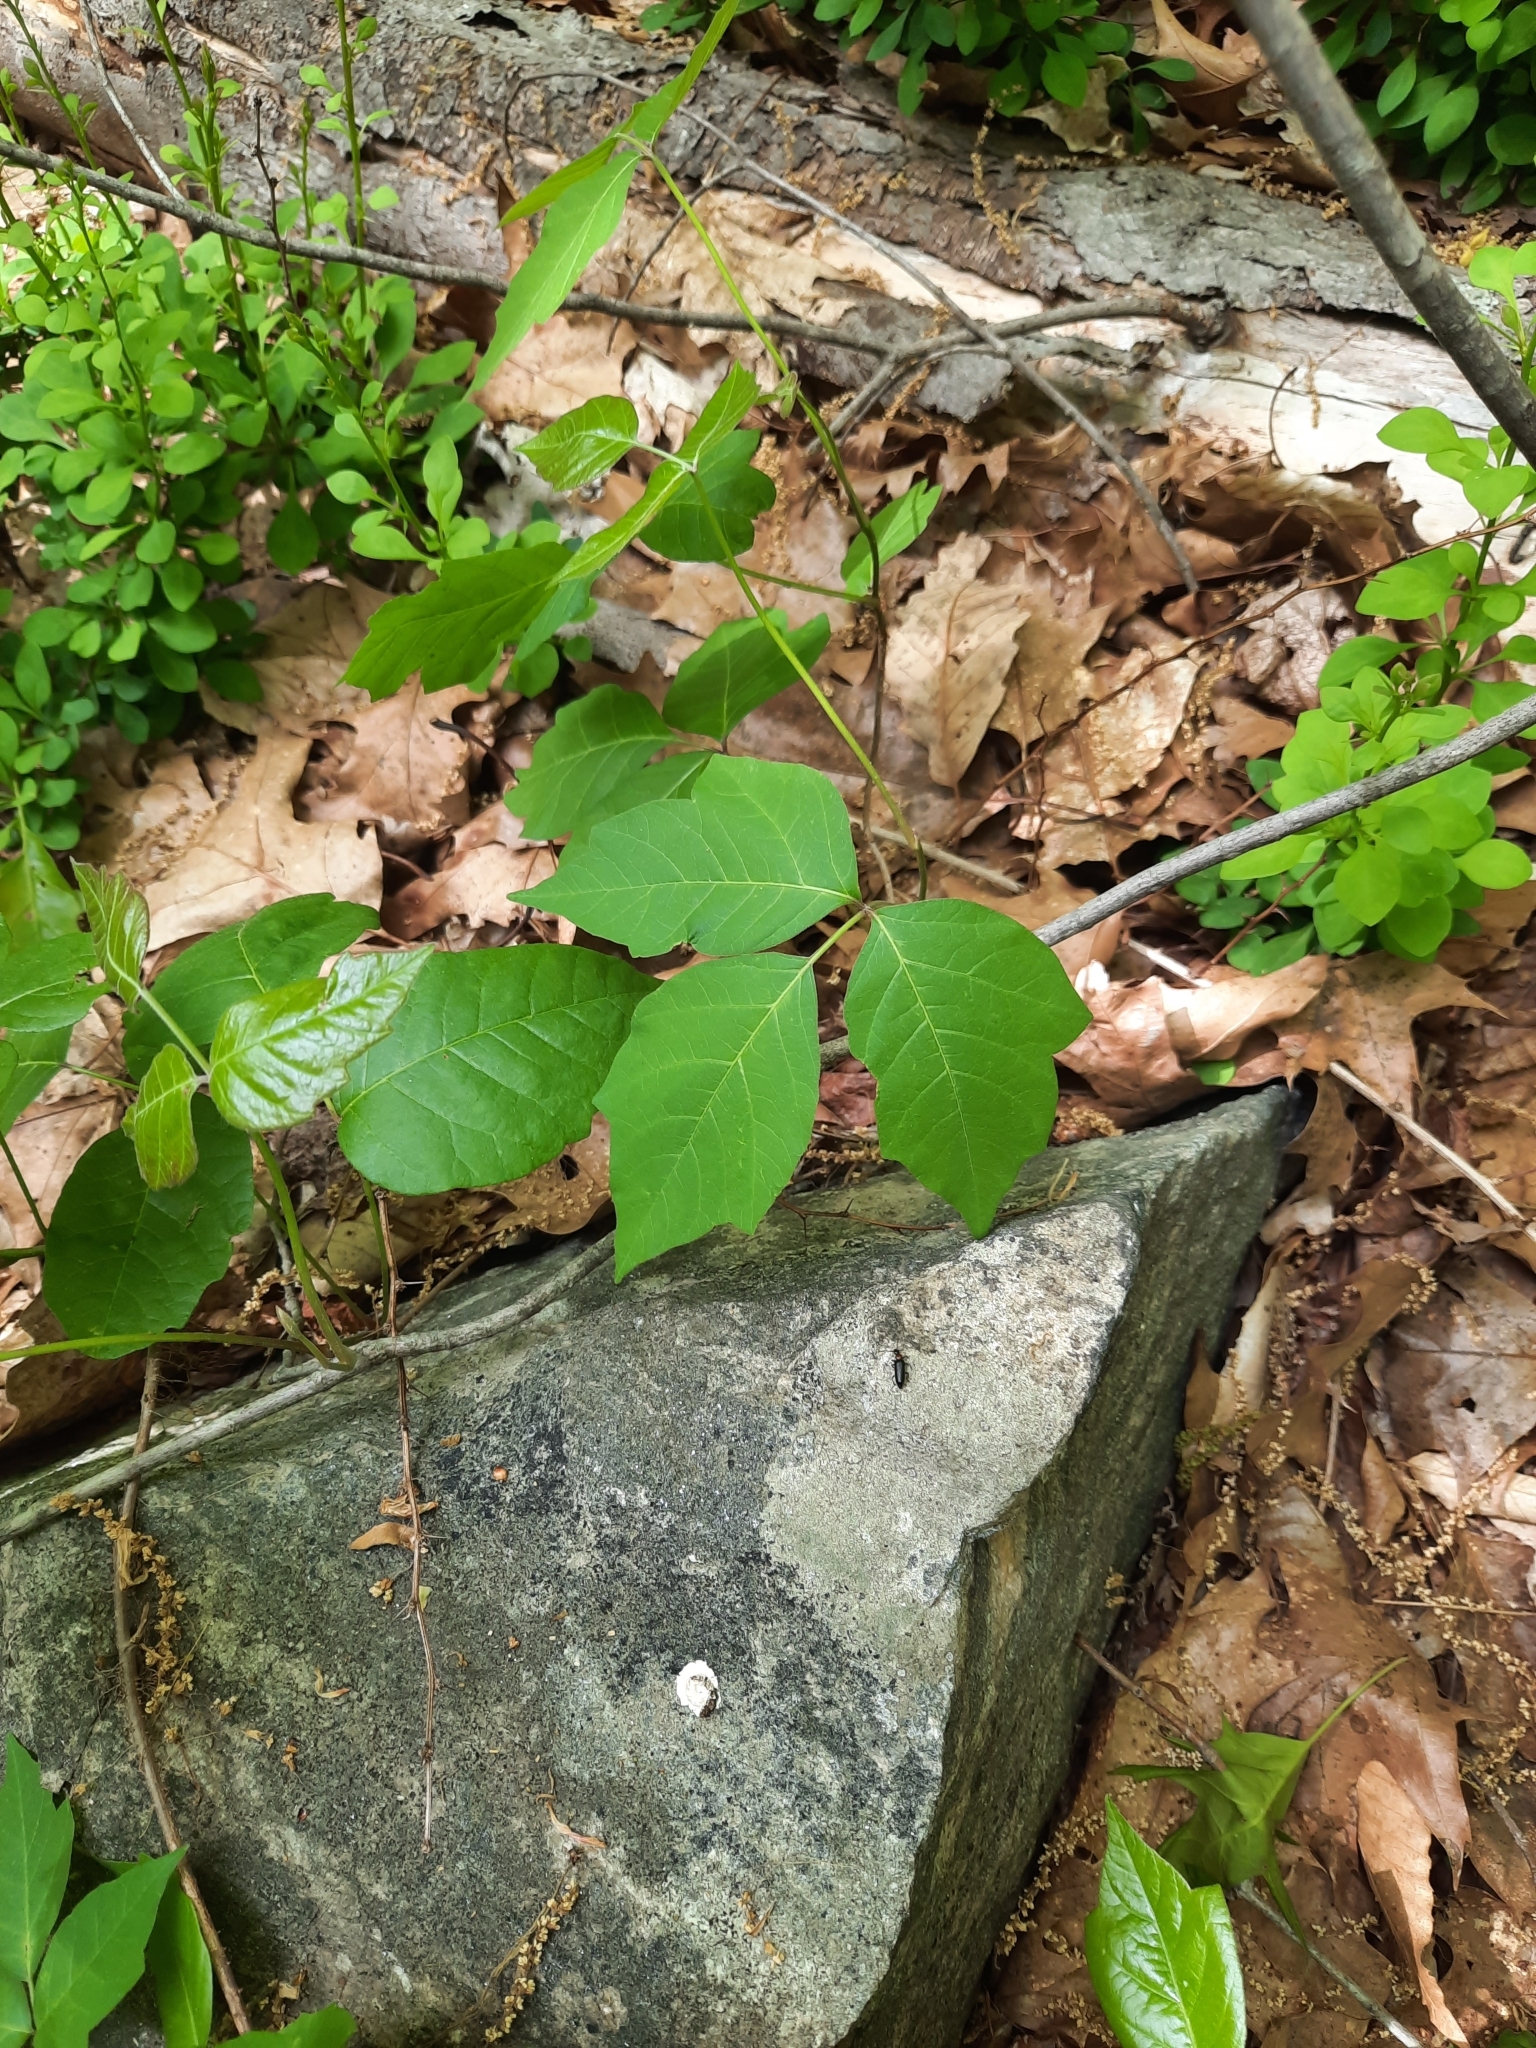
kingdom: Plantae
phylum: Tracheophyta
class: Magnoliopsida
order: Sapindales
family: Anacardiaceae
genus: Toxicodendron
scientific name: Toxicodendron radicans
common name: Poison ivy
